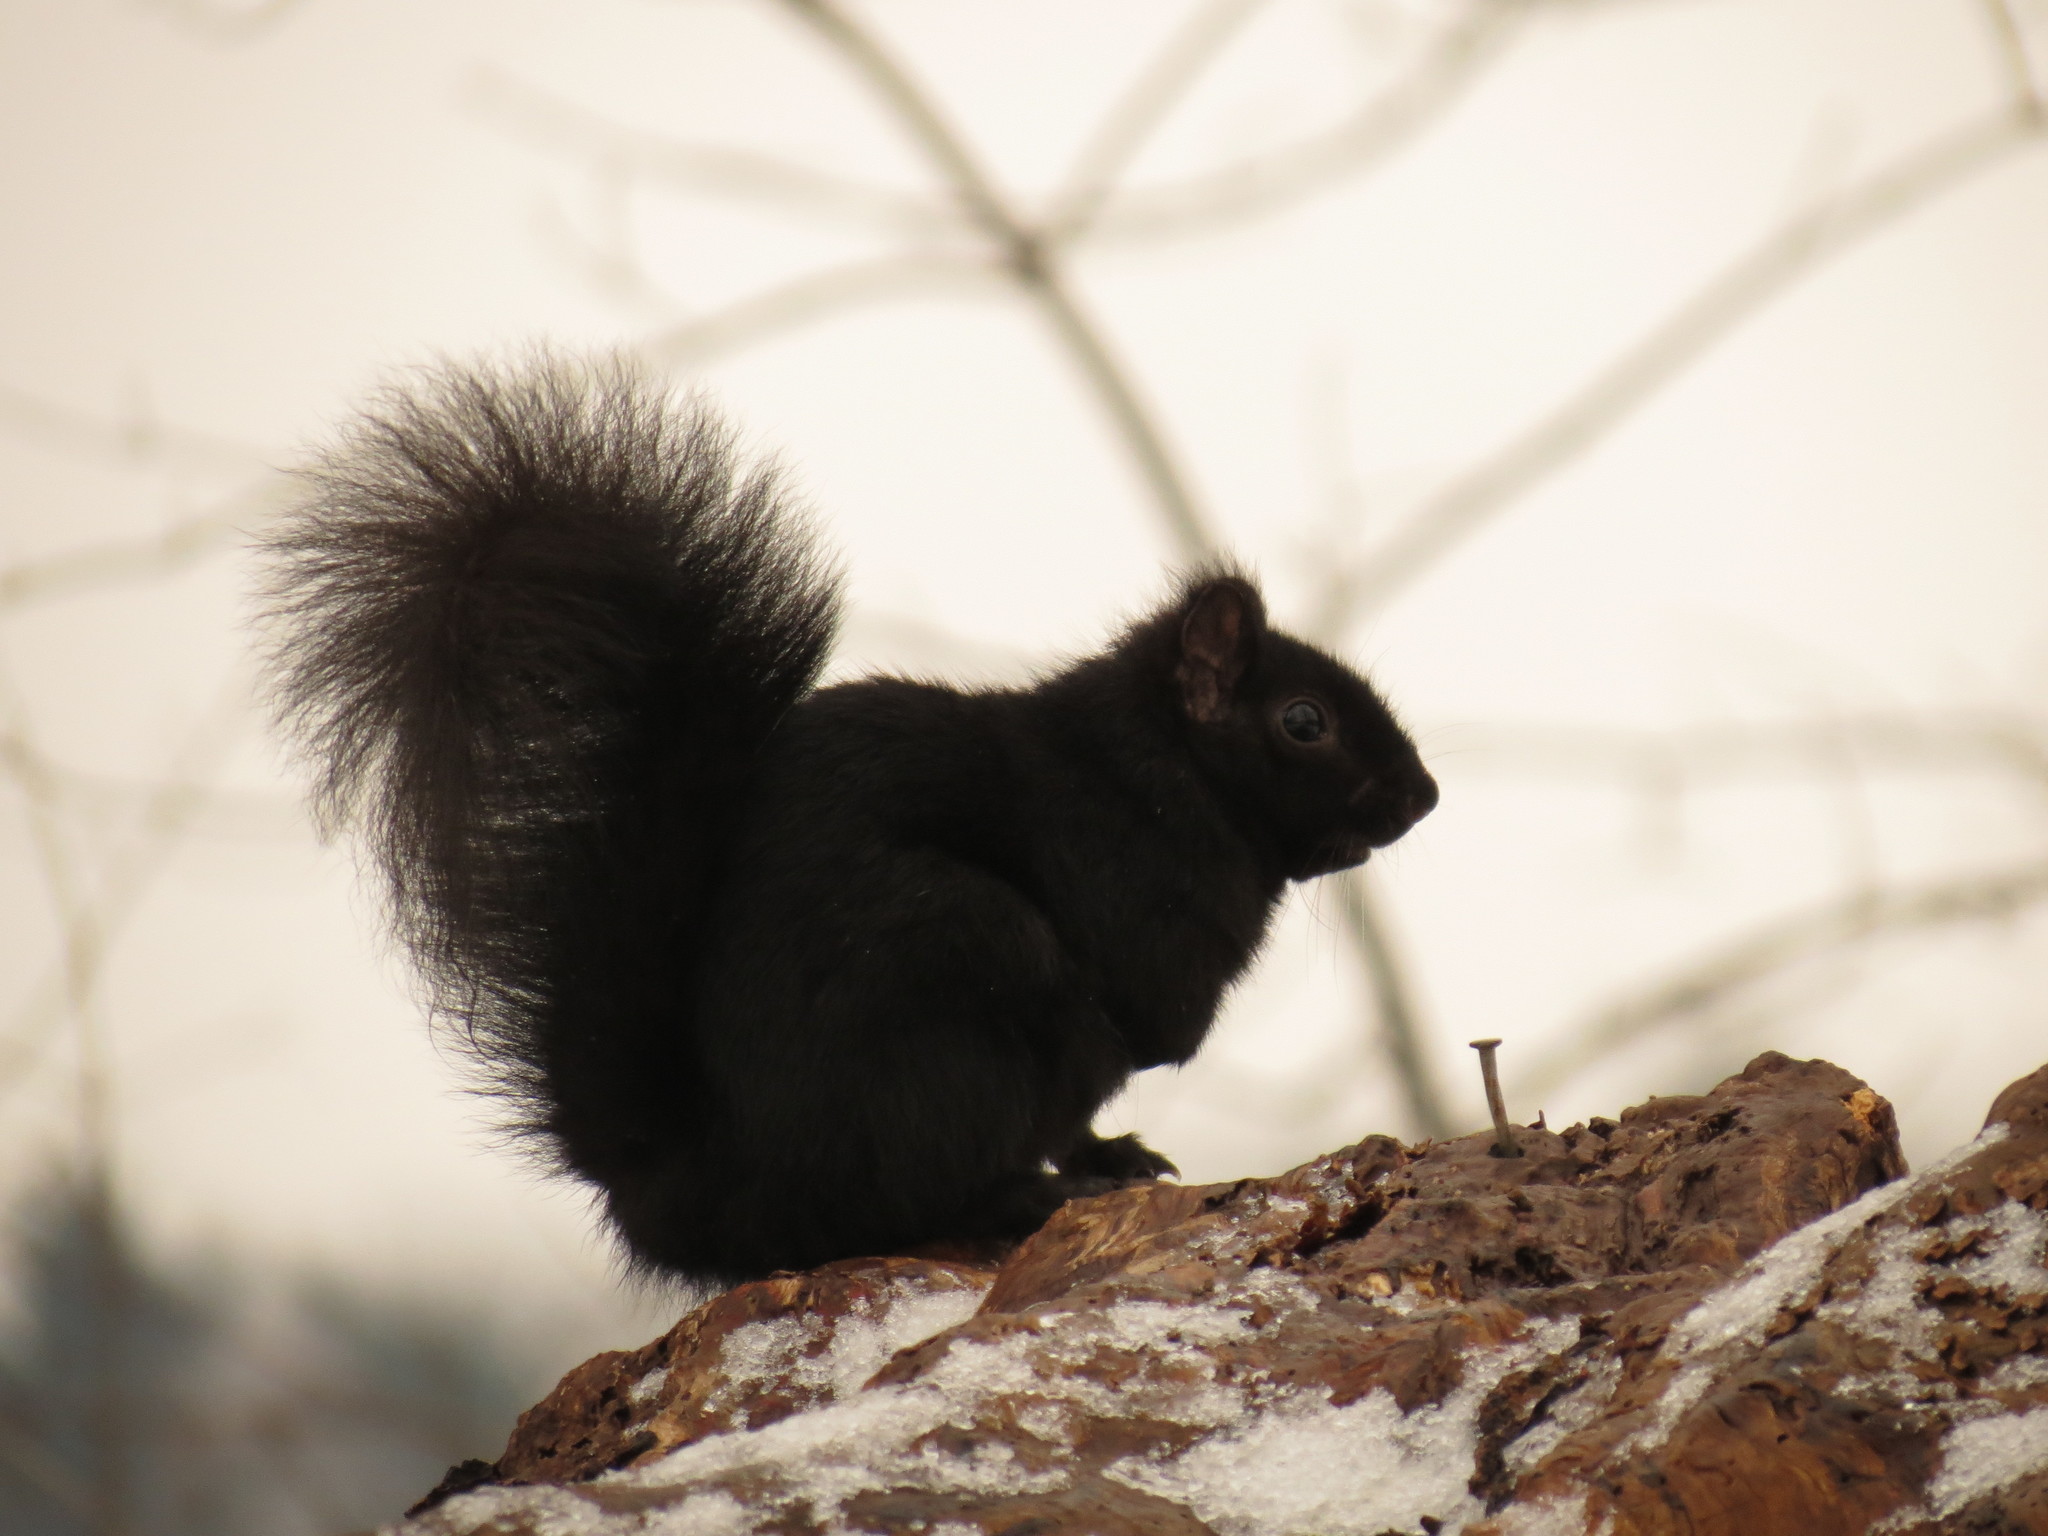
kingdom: Animalia
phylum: Chordata
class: Mammalia
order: Rodentia
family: Sciuridae
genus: Sciurus
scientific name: Sciurus carolinensis
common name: Eastern gray squirrel
